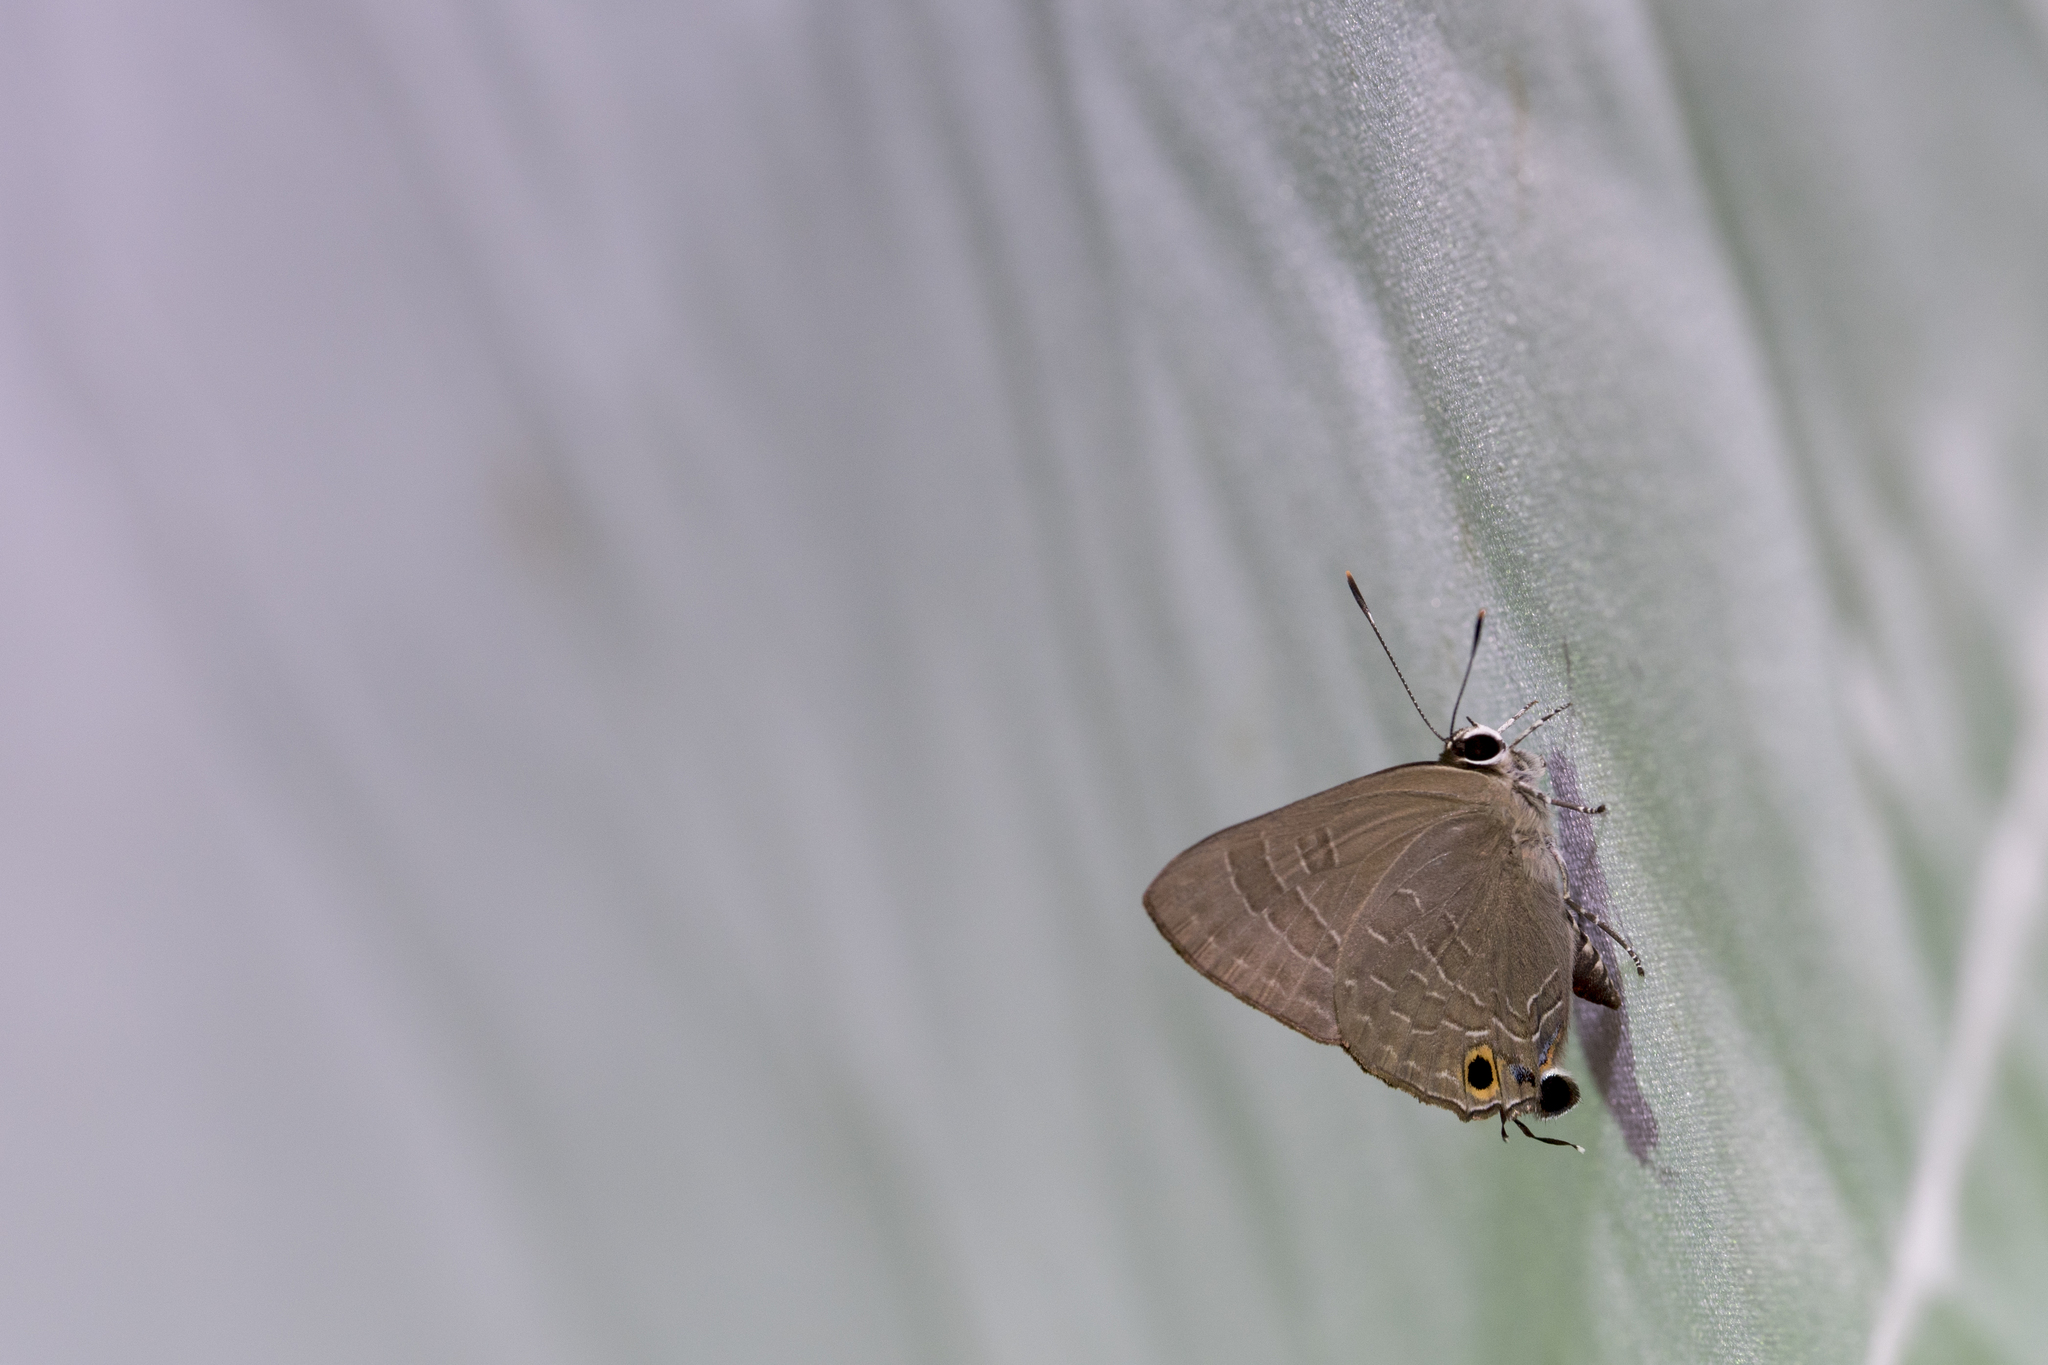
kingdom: Animalia
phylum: Arthropoda
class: Insecta
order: Lepidoptera
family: Lycaenidae
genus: Deudorix
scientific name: Deudorix epijarbas
